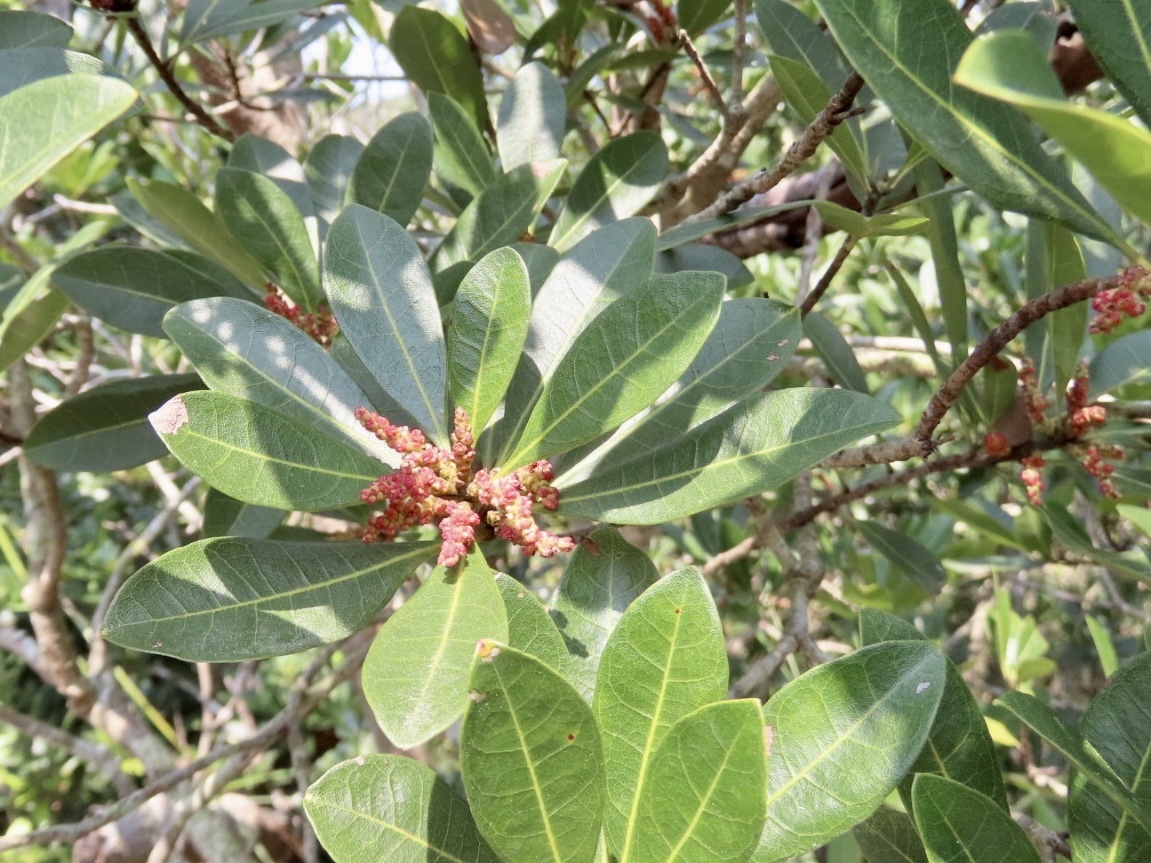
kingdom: Plantae
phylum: Tracheophyta
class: Magnoliopsida
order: Fagales
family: Myricaceae
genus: Morella
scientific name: Morella rubra
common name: Red bayberry
